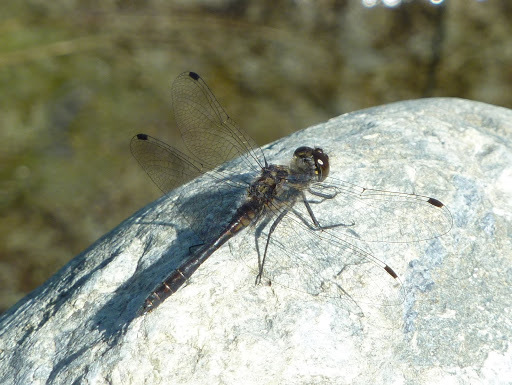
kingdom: Animalia
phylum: Arthropoda
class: Insecta
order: Odonata
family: Libellulidae
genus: Sympetrum
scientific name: Sympetrum danae
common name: Black darter
